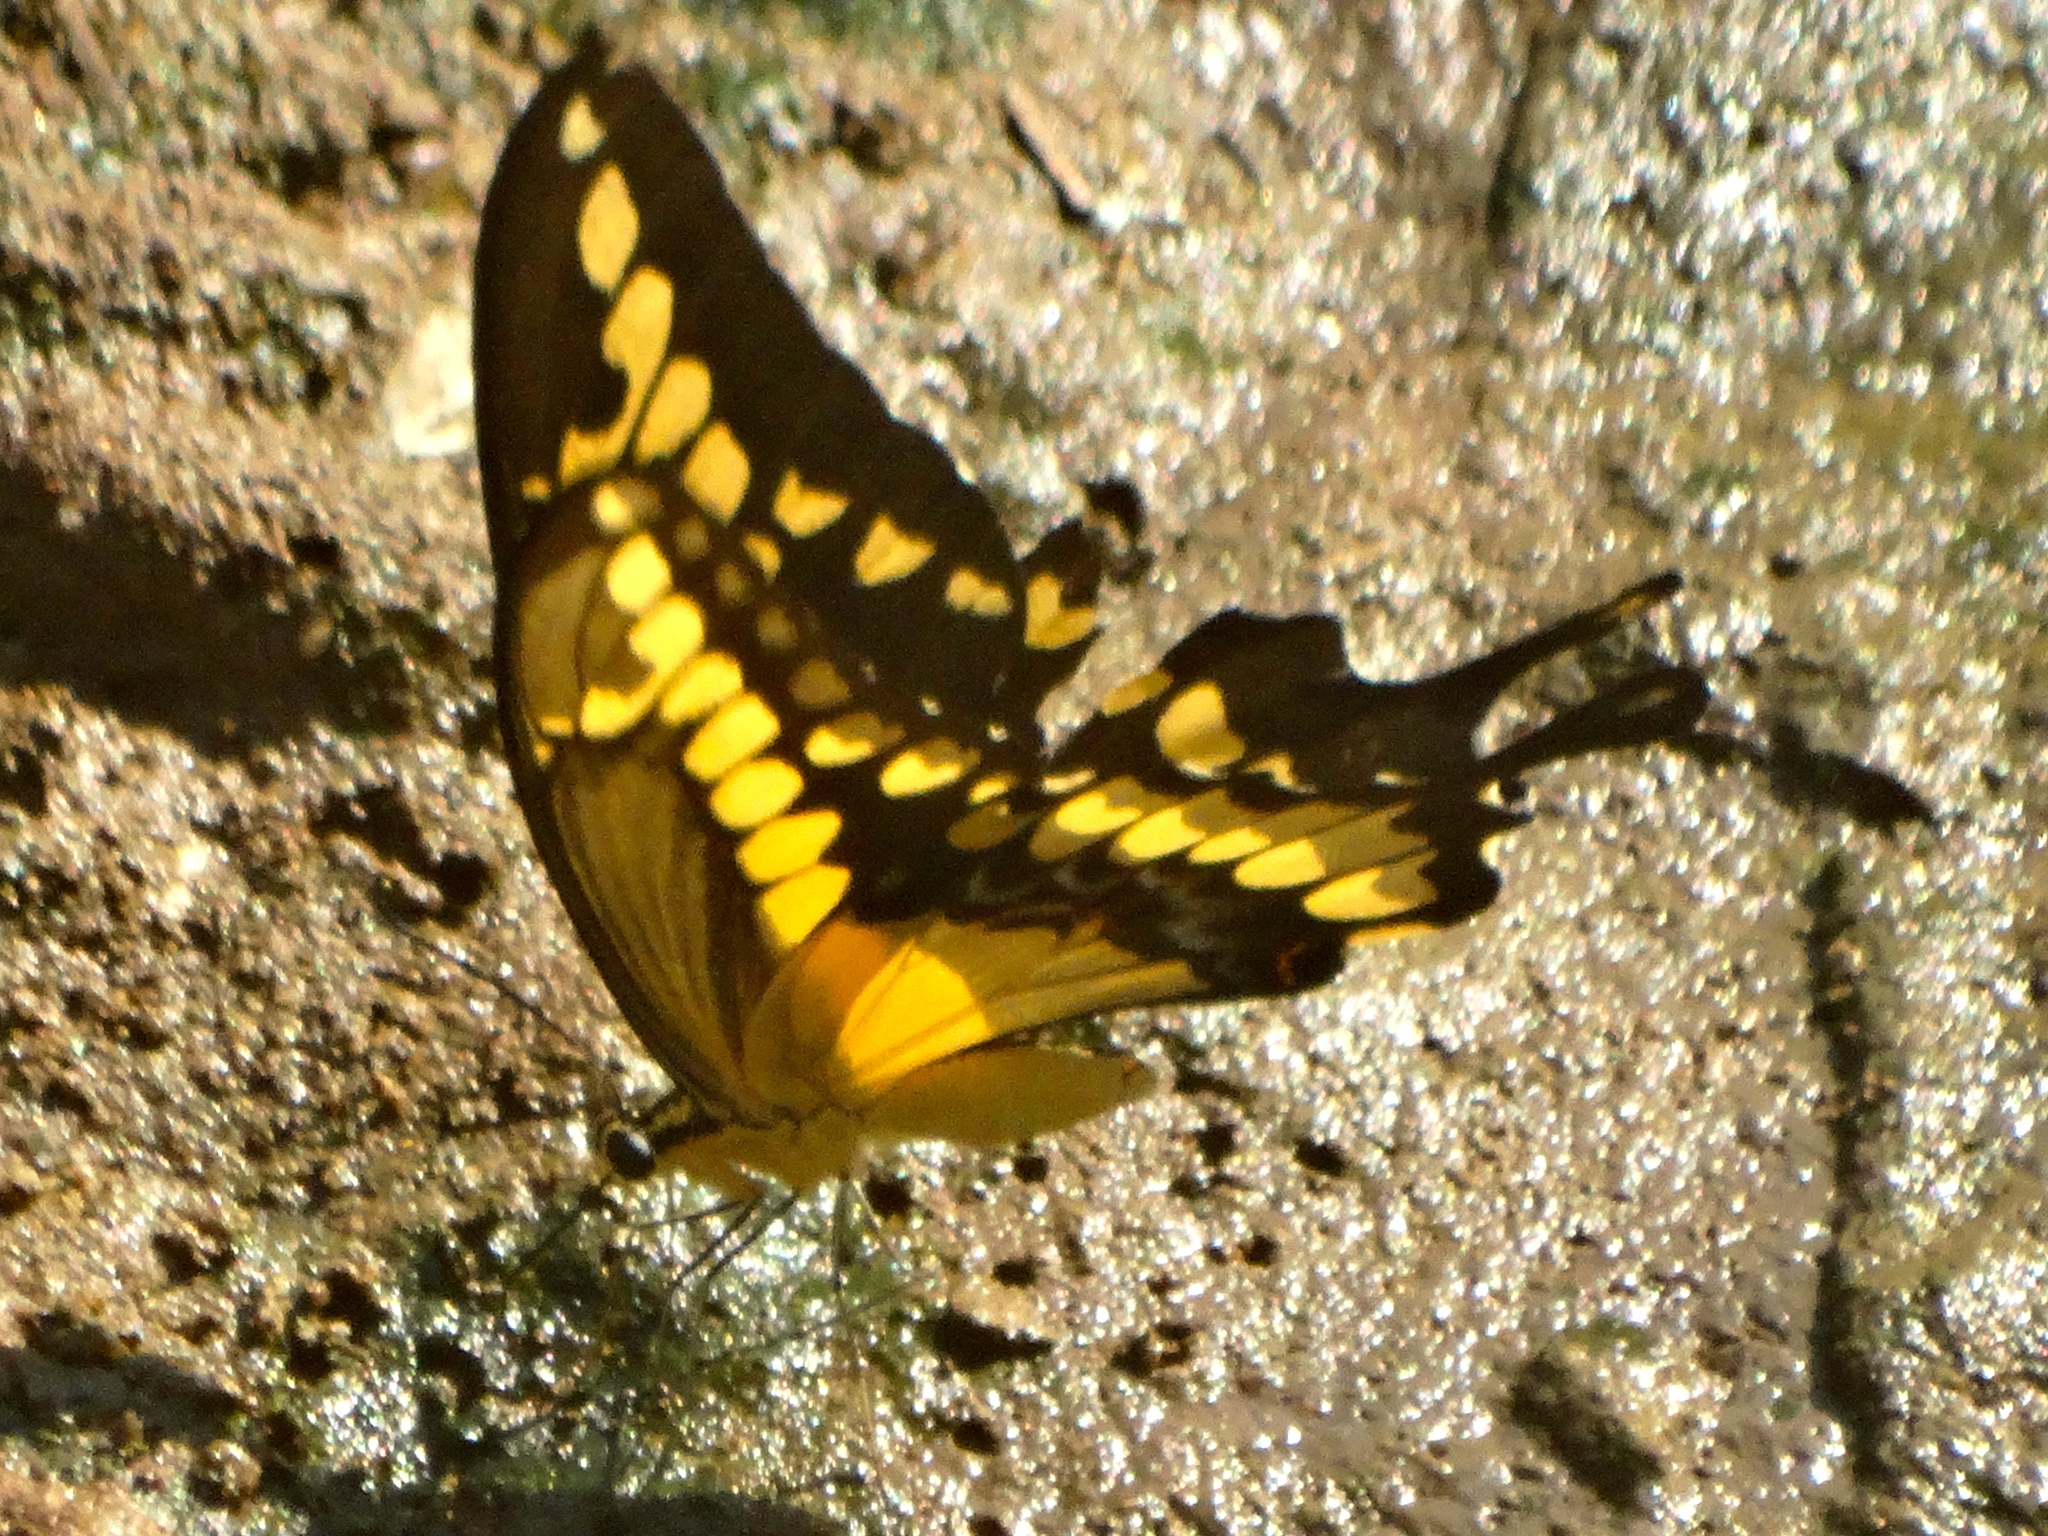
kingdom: Animalia
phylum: Arthropoda
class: Insecta
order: Lepidoptera
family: Papilionidae
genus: Papilio
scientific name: Papilio rumiko
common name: Western giant swallowtail
